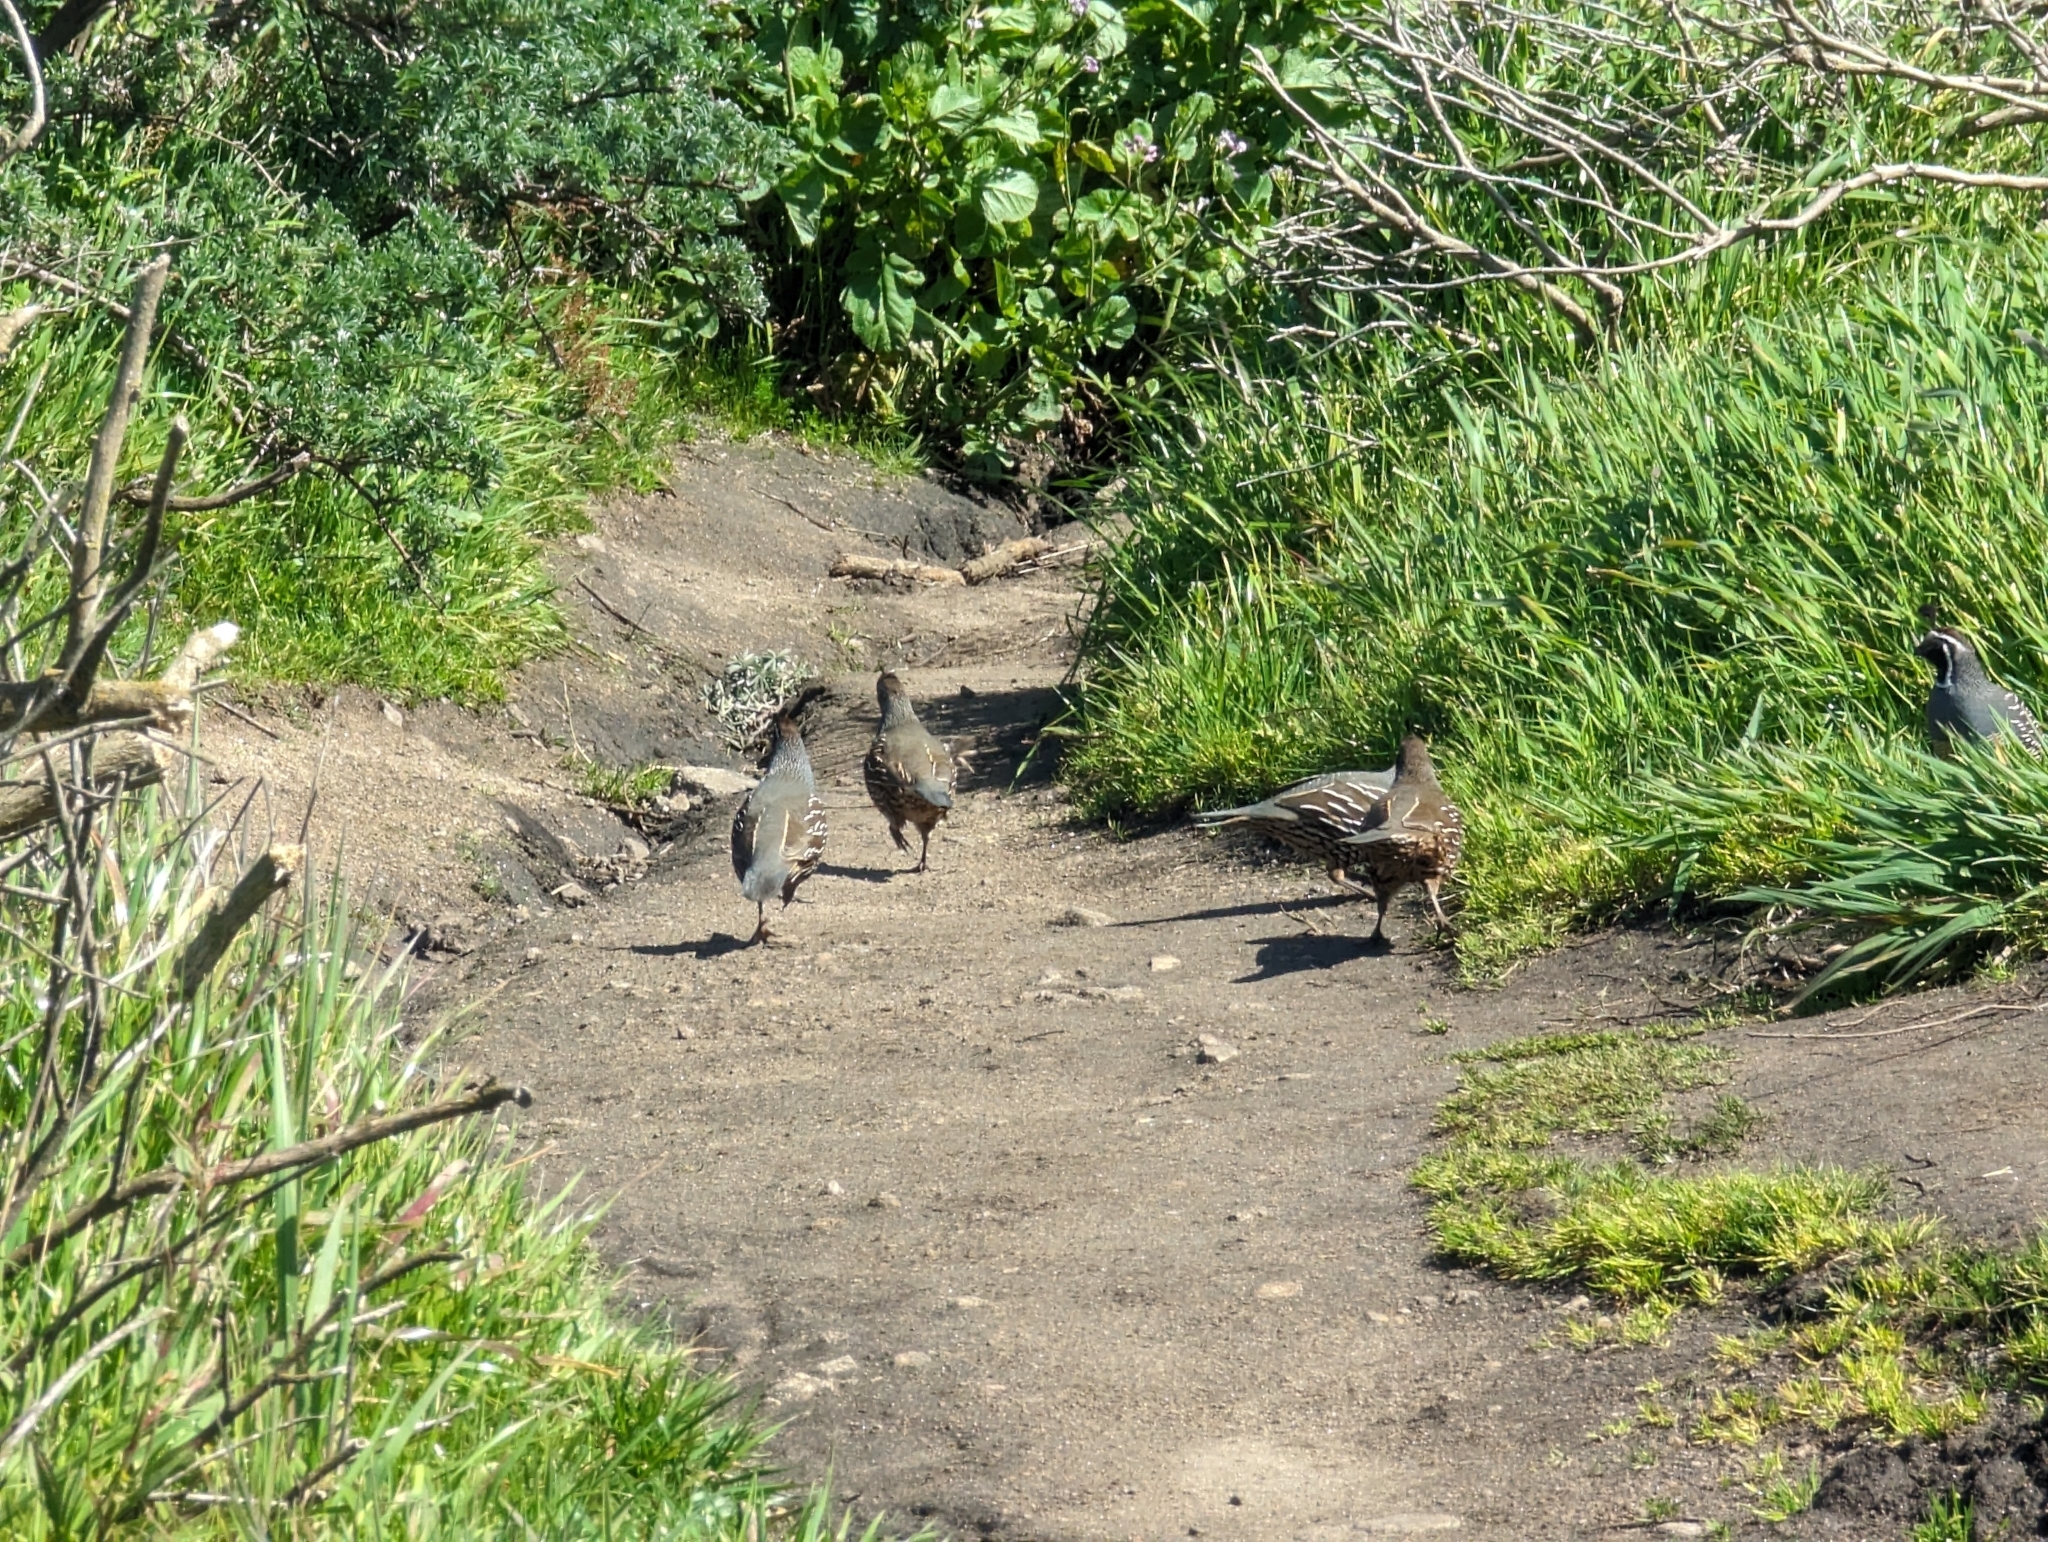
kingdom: Animalia
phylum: Chordata
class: Aves
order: Galliformes
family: Odontophoridae
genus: Callipepla
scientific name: Callipepla californica
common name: California quail
